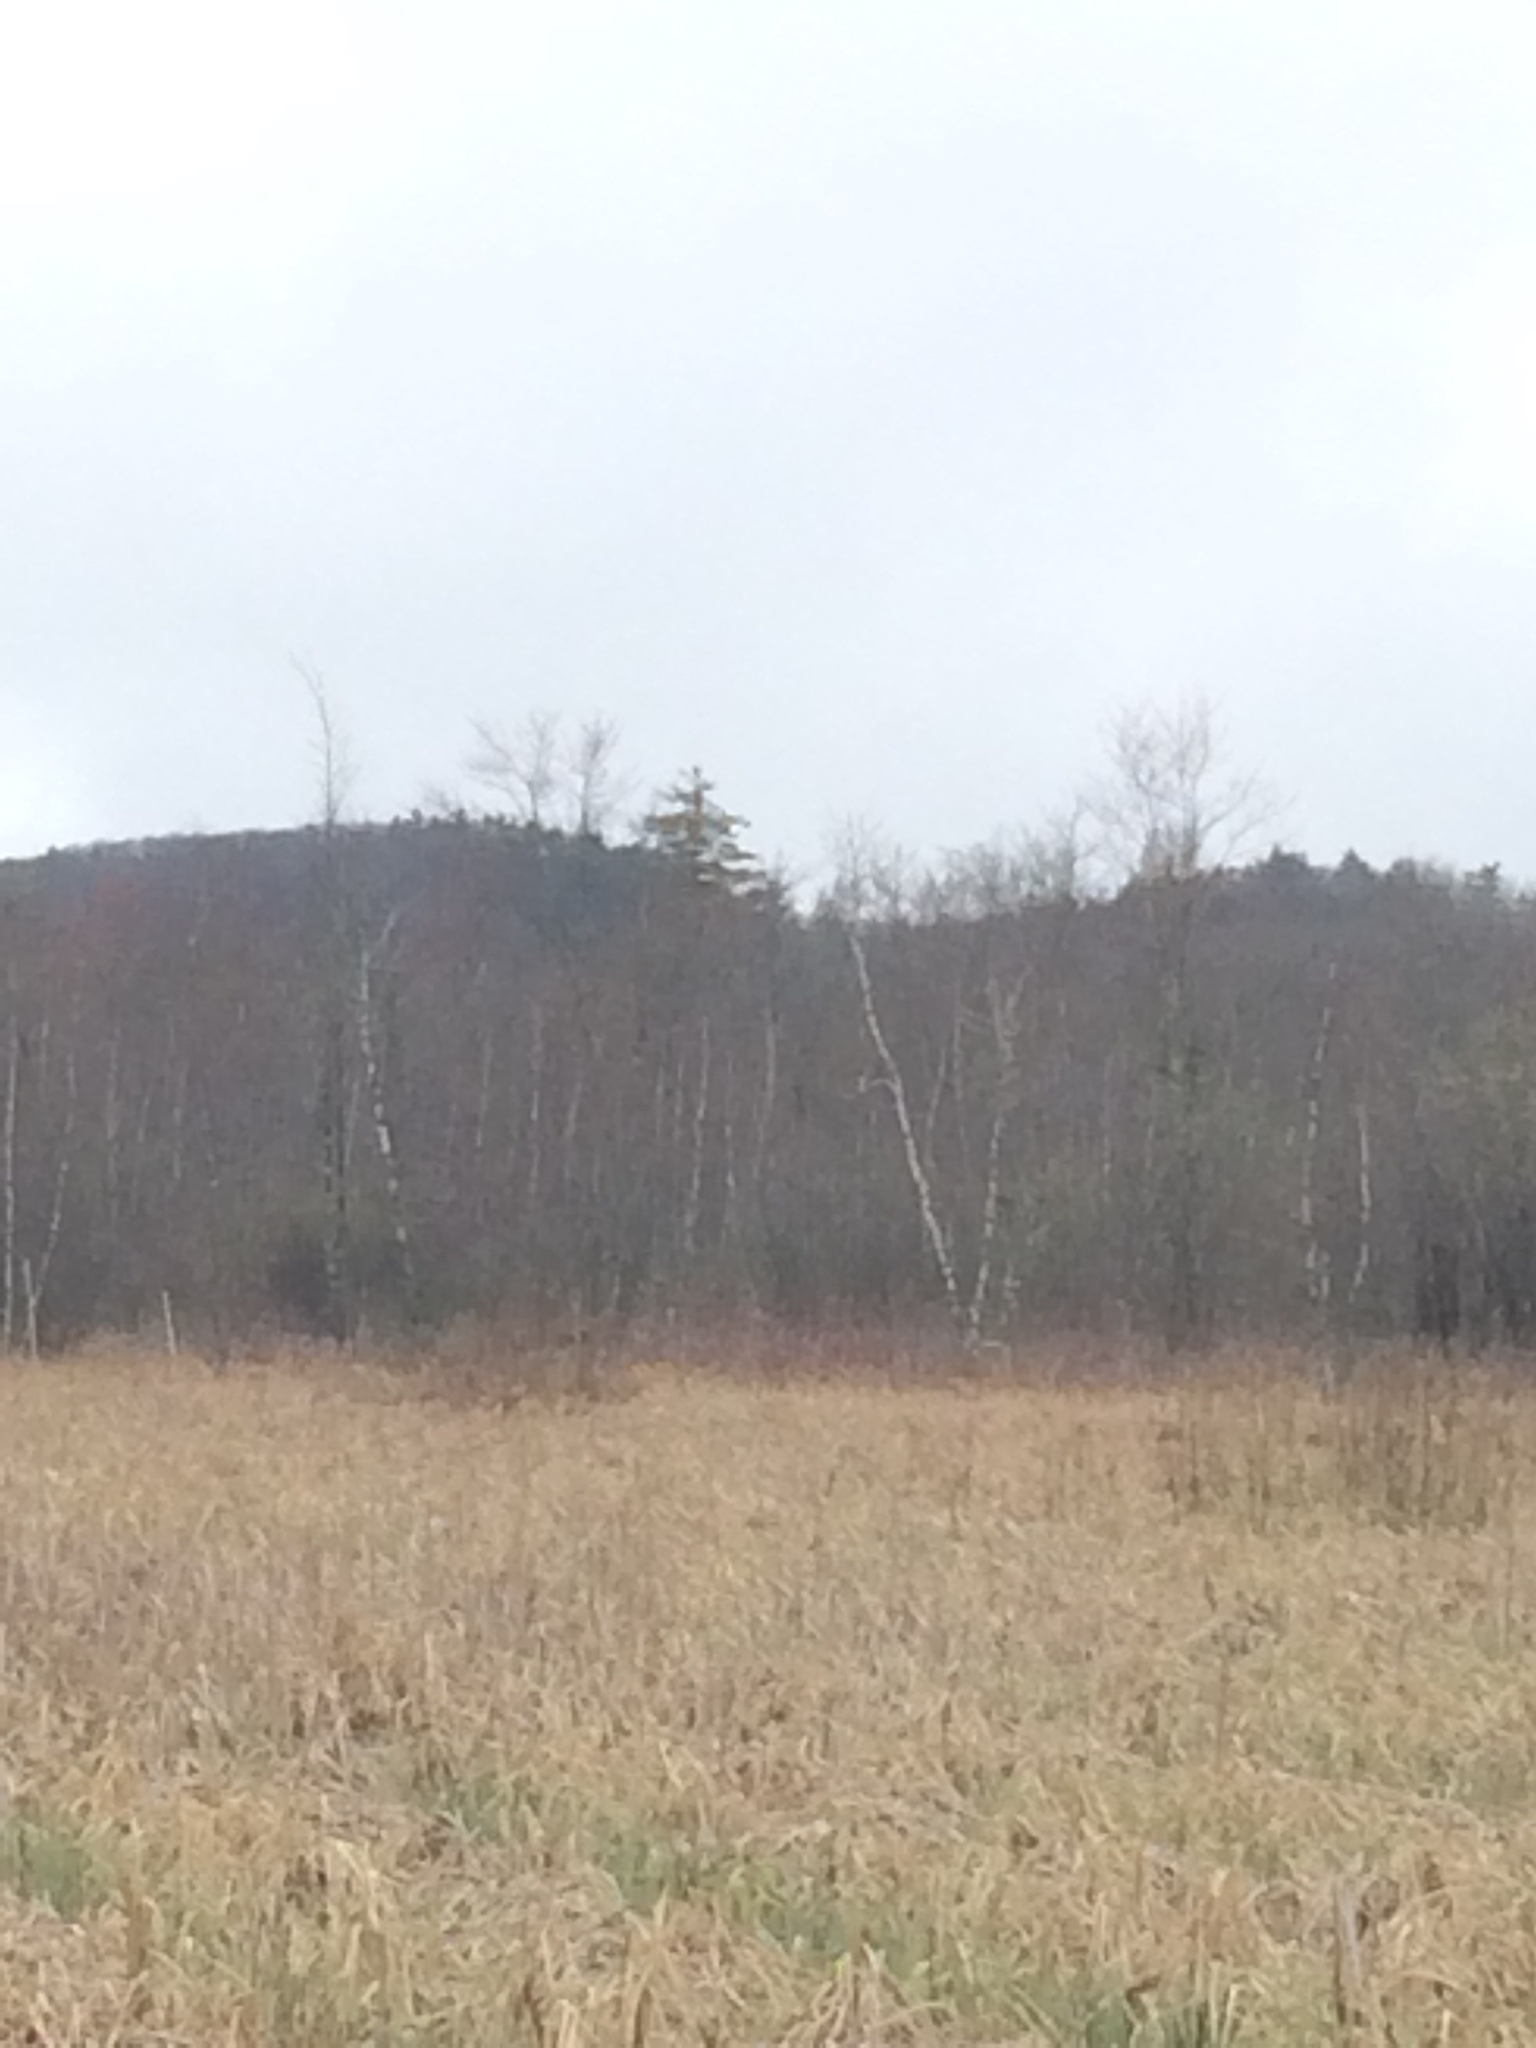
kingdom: Plantae
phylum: Tracheophyta
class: Pinopsida
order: Pinales
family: Pinaceae
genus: Pinus
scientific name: Pinus strobus
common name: Weymouth pine
